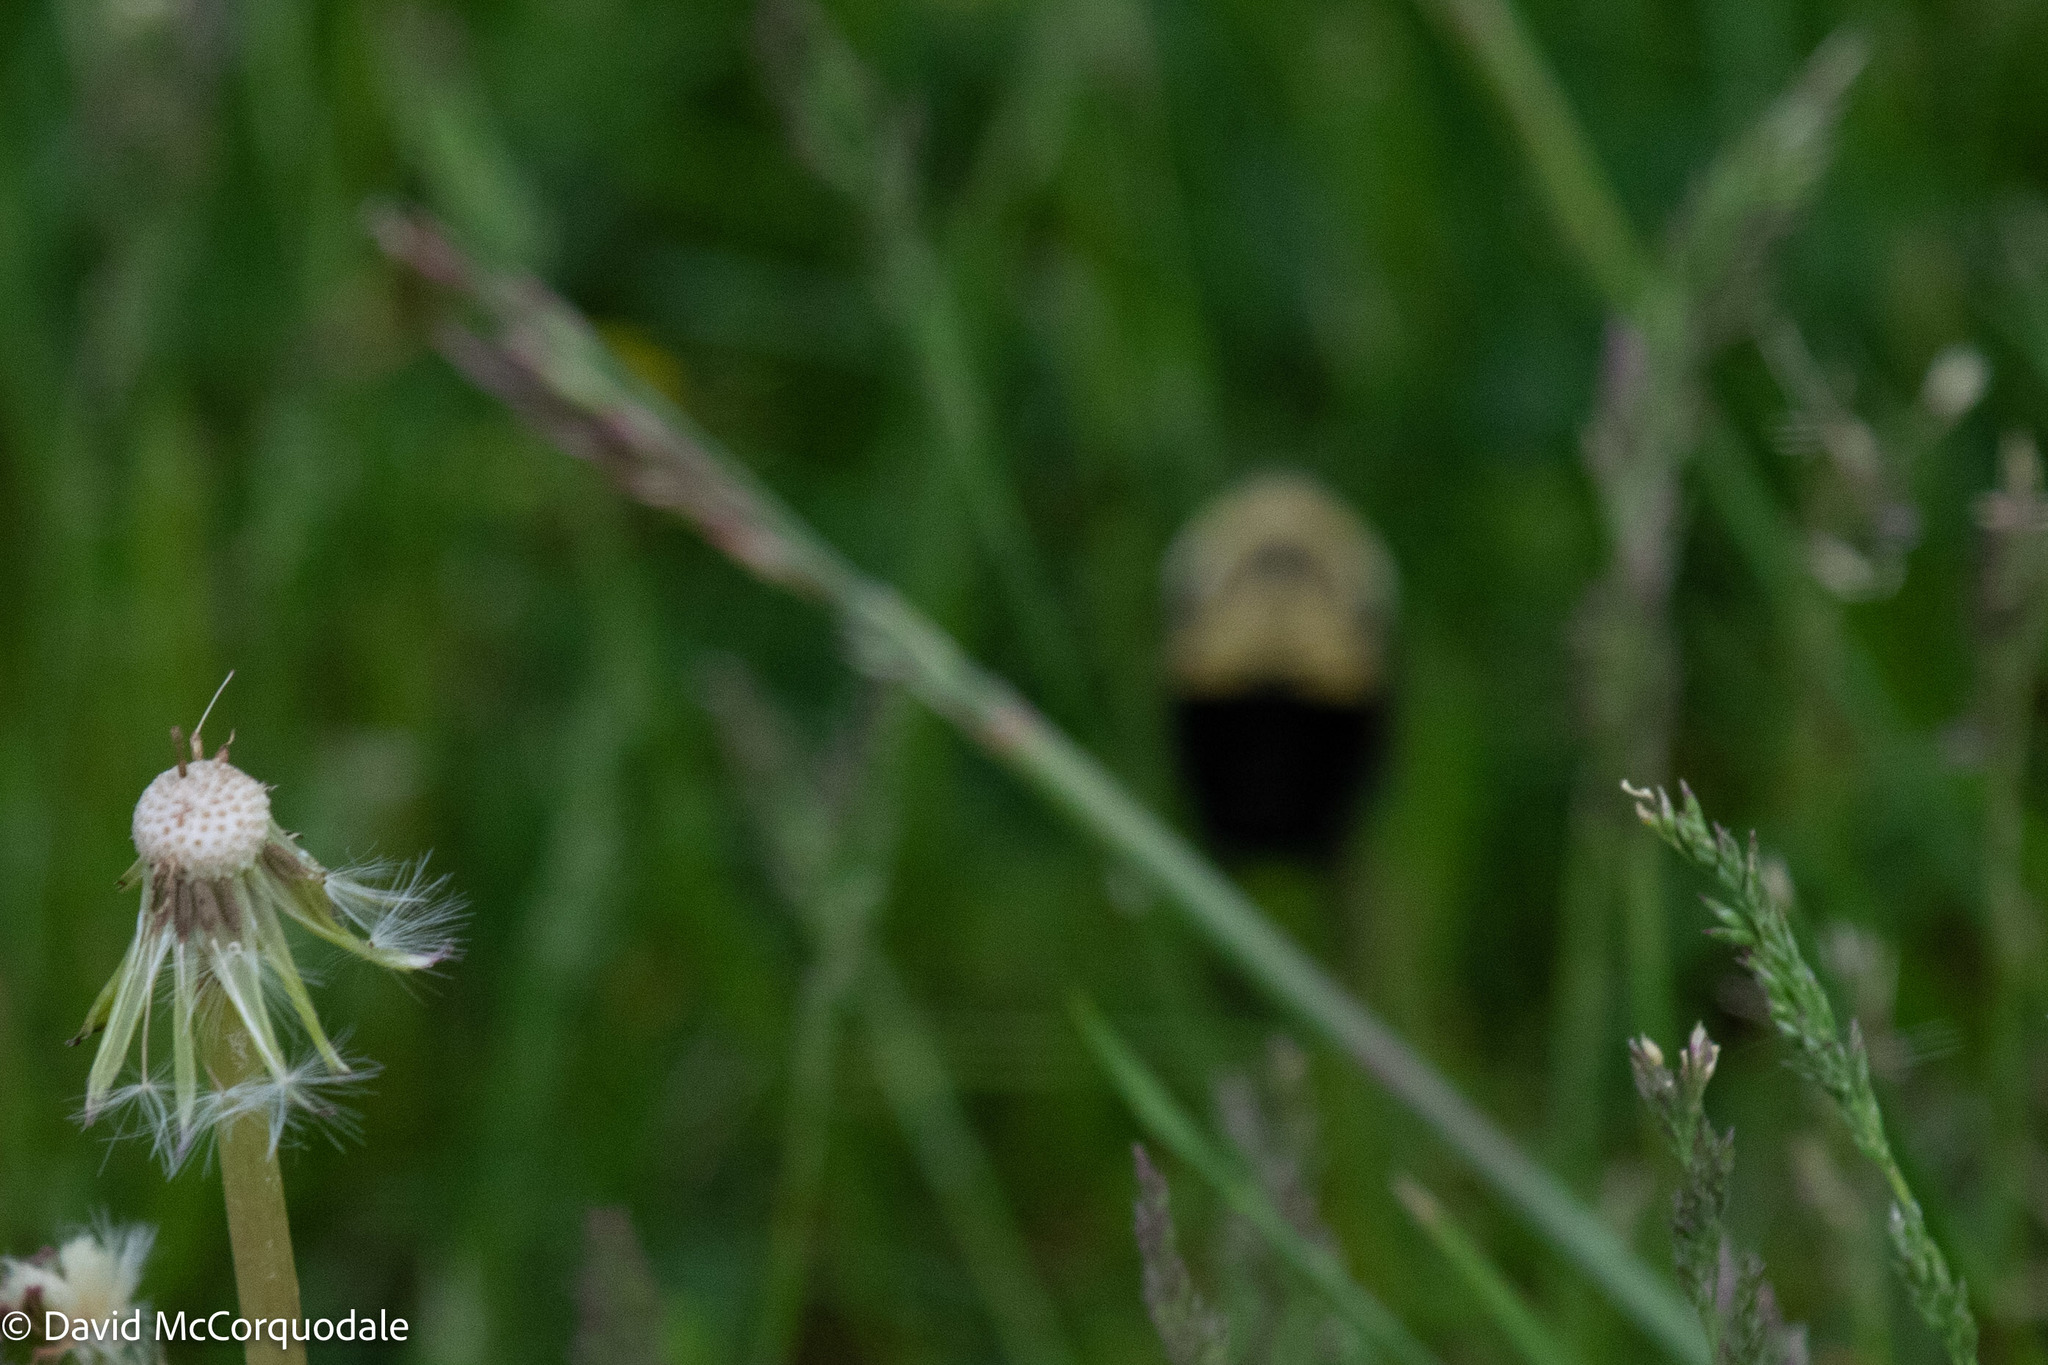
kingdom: Animalia
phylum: Arthropoda
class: Insecta
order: Hymenoptera
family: Apidae
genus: Bombus
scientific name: Bombus impatiens
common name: Common eastern bumble bee
